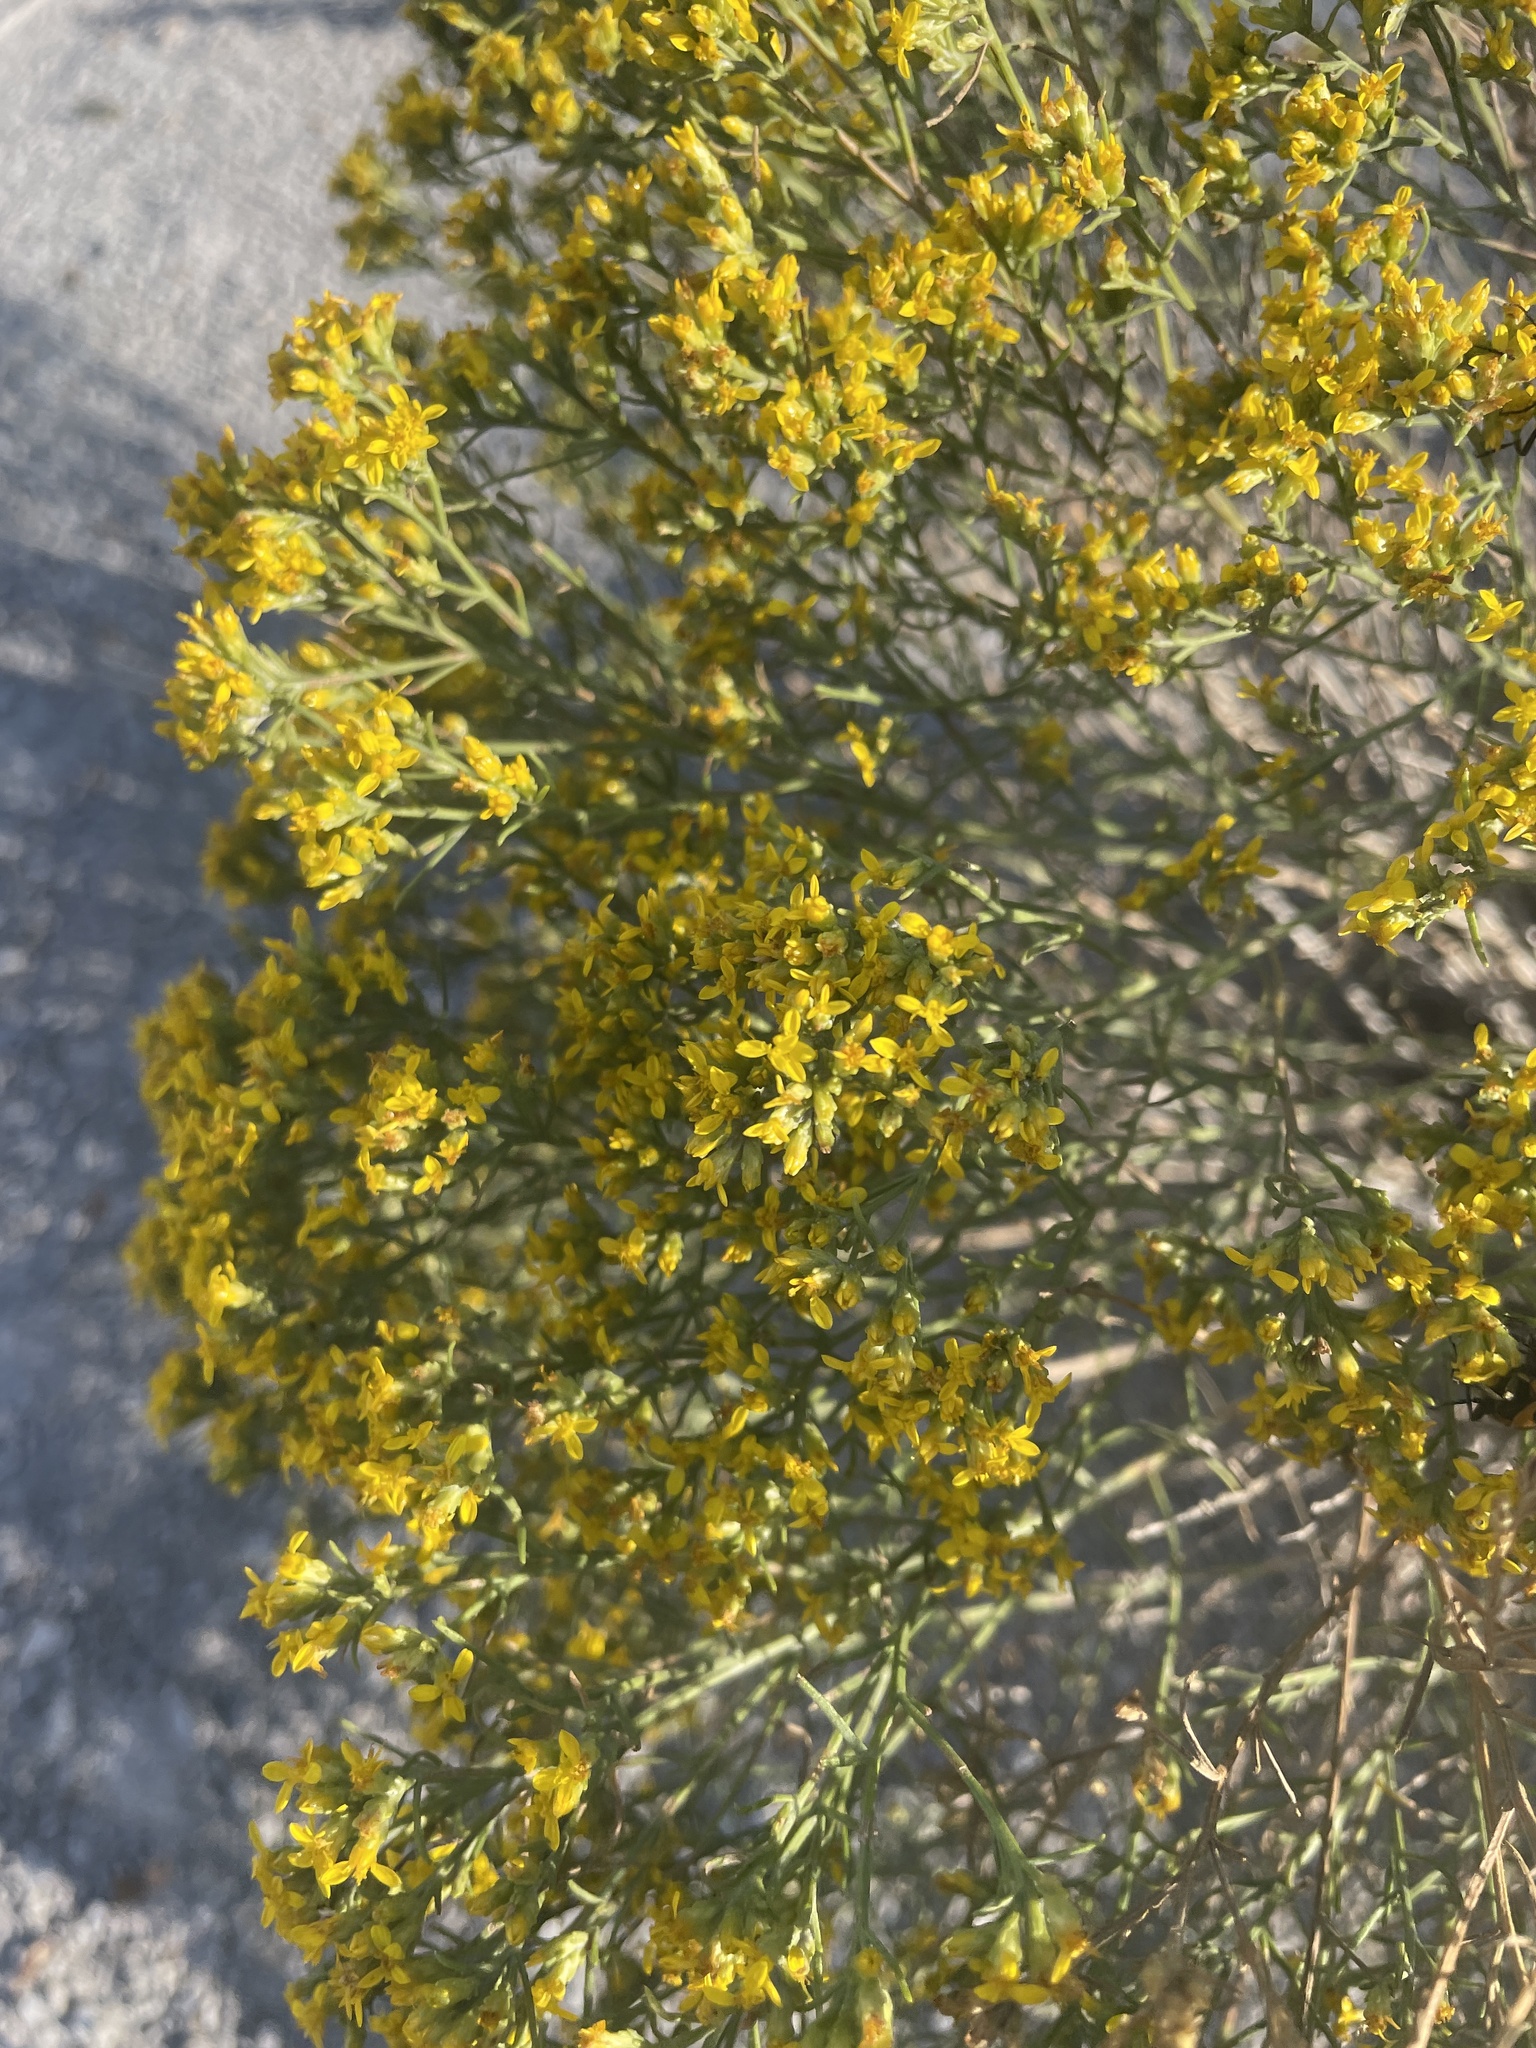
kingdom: Plantae
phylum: Tracheophyta
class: Magnoliopsida
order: Asterales
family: Asteraceae
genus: Gutierrezia
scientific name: Gutierrezia sarothrae
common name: Broom snakeweed
